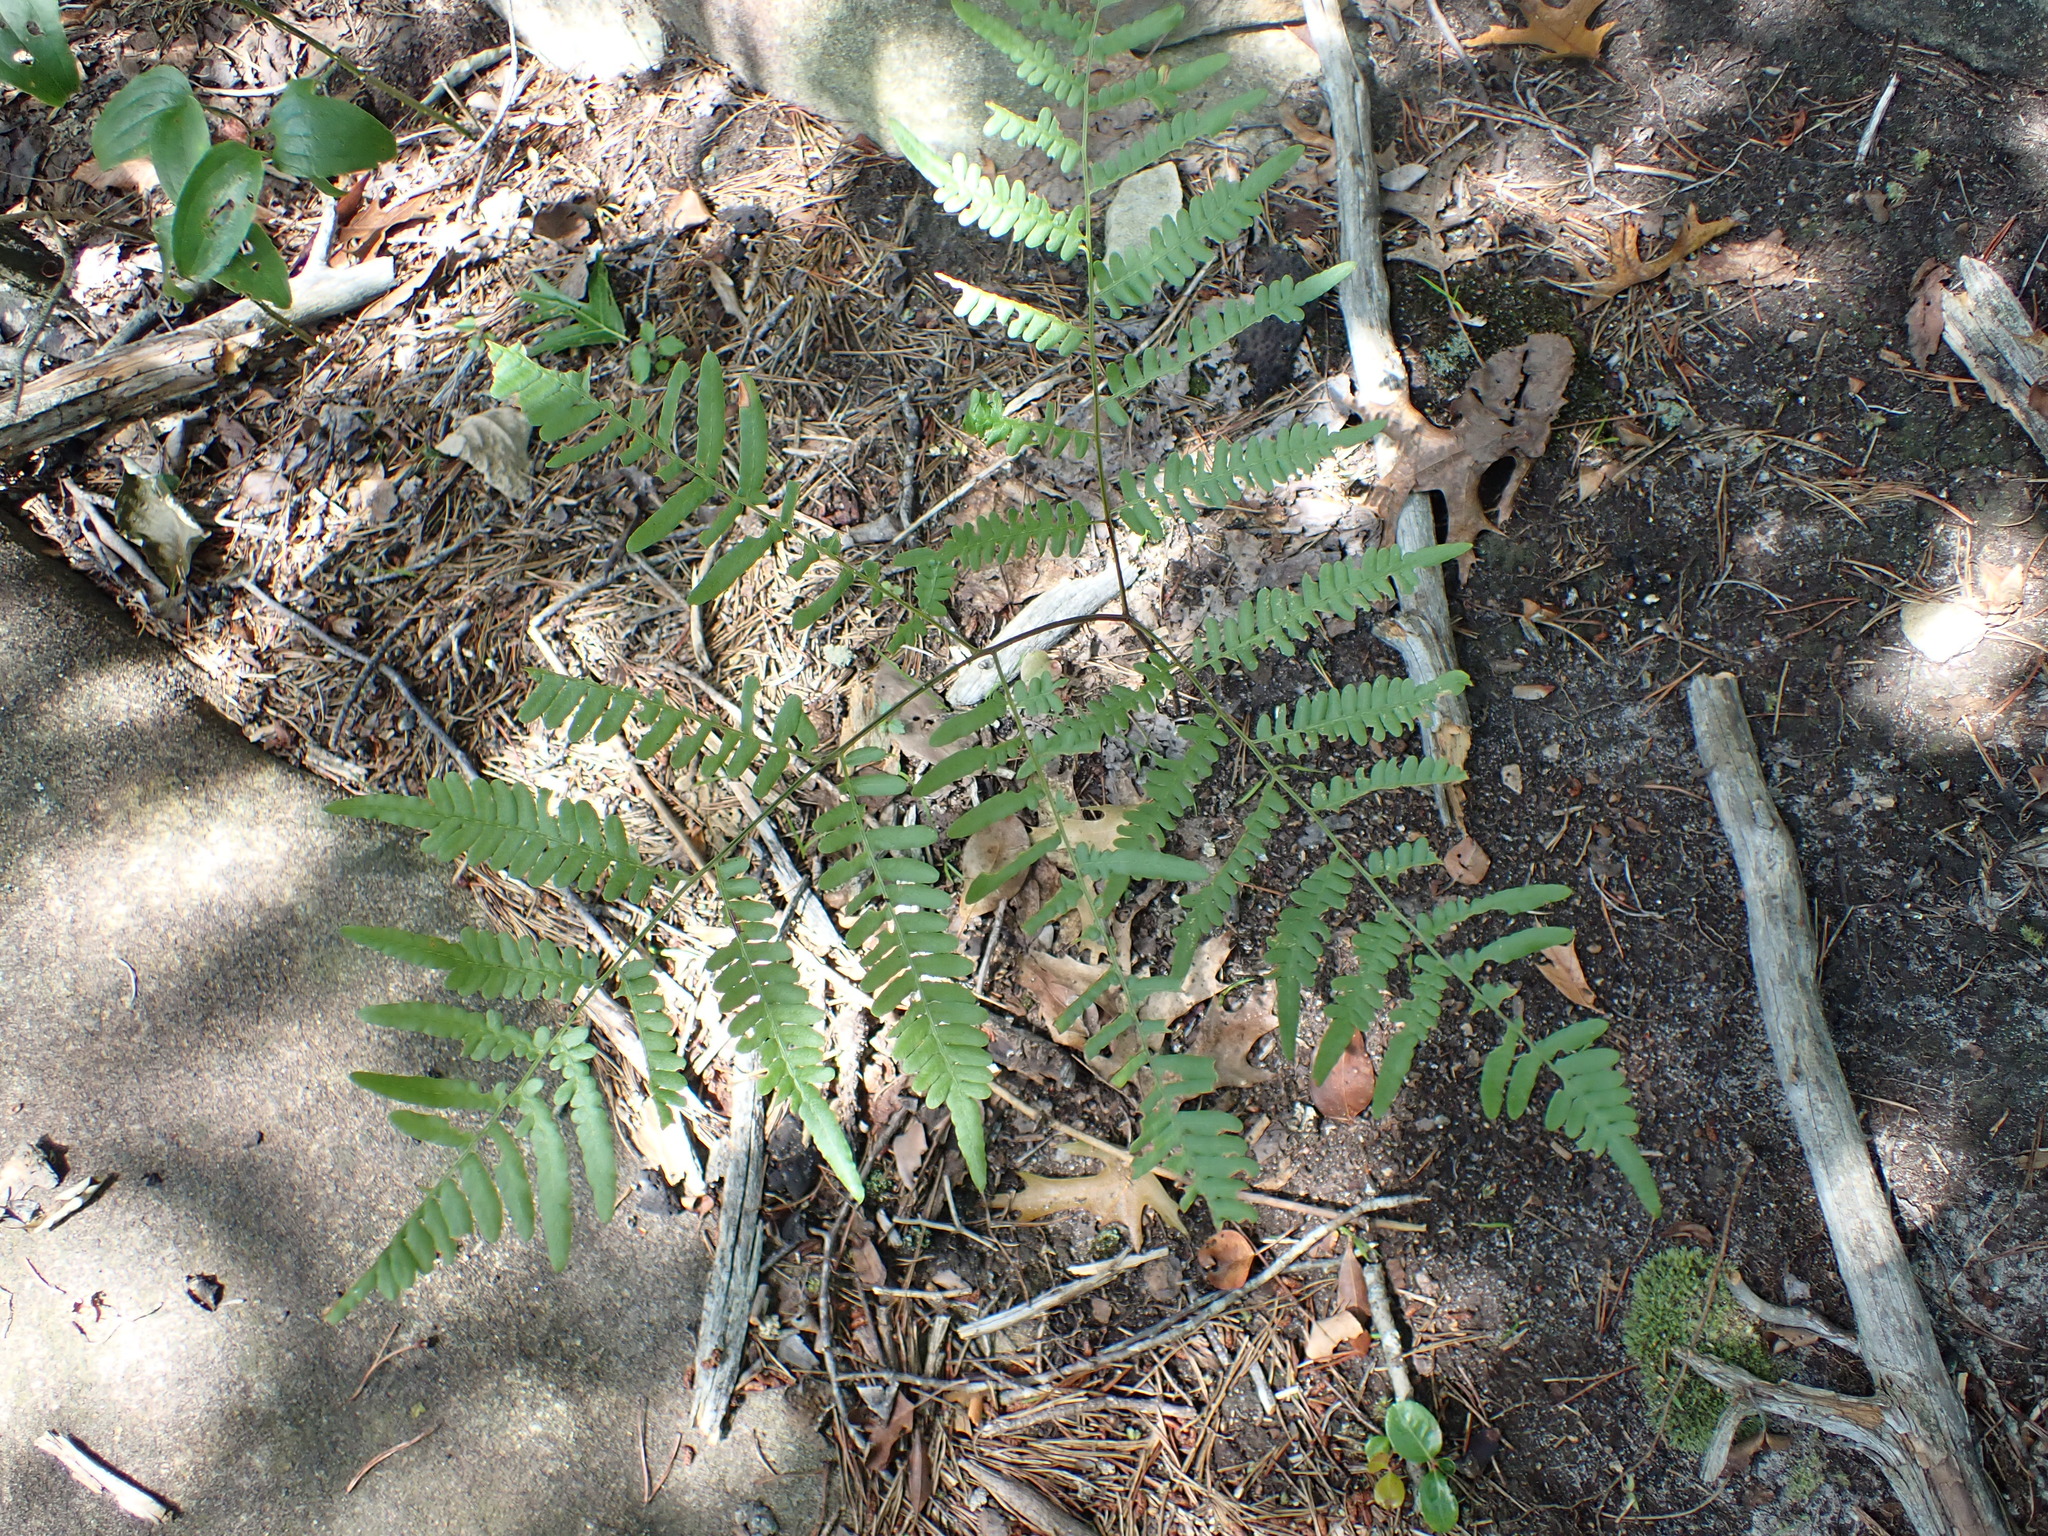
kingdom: Plantae
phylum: Tracheophyta
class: Polypodiopsida
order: Polypodiales
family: Dennstaedtiaceae
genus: Pteridium
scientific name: Pteridium aquilinum
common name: Bracken
